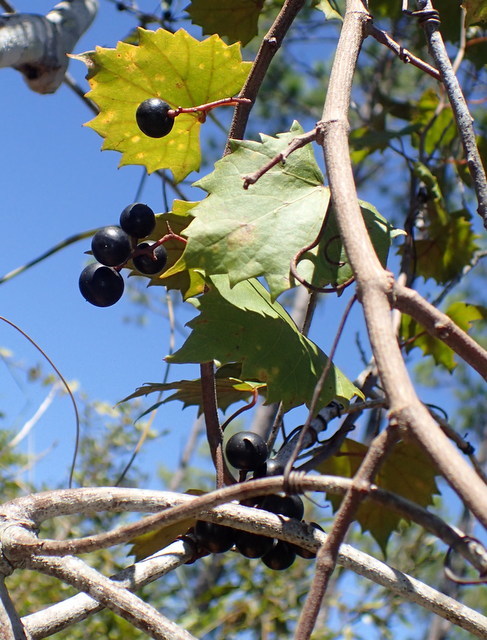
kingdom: Plantae
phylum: Tracheophyta
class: Magnoliopsida
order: Vitales
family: Vitaceae
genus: Vitis
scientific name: Vitis rotundifolia
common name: Muscadine grape
